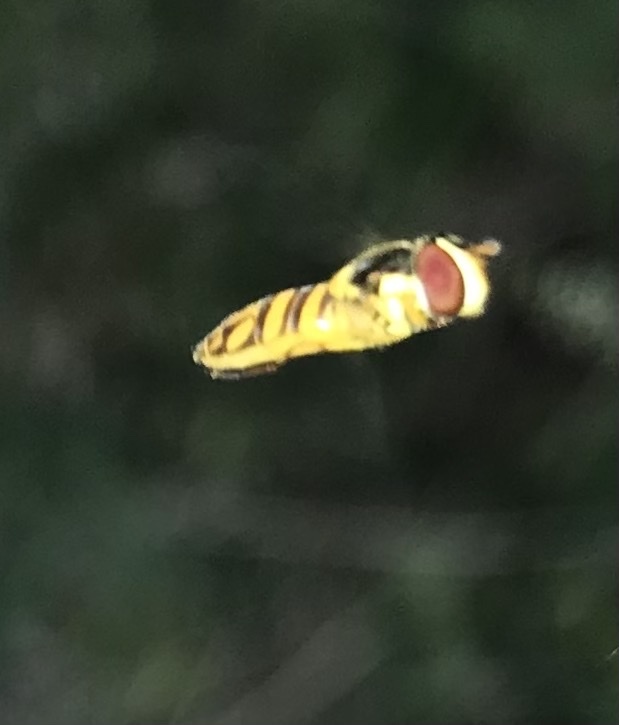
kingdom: Animalia
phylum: Arthropoda
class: Insecta
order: Diptera
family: Syrphidae
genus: Allograpta
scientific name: Allograpta obliqua
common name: Common oblique syrphid
